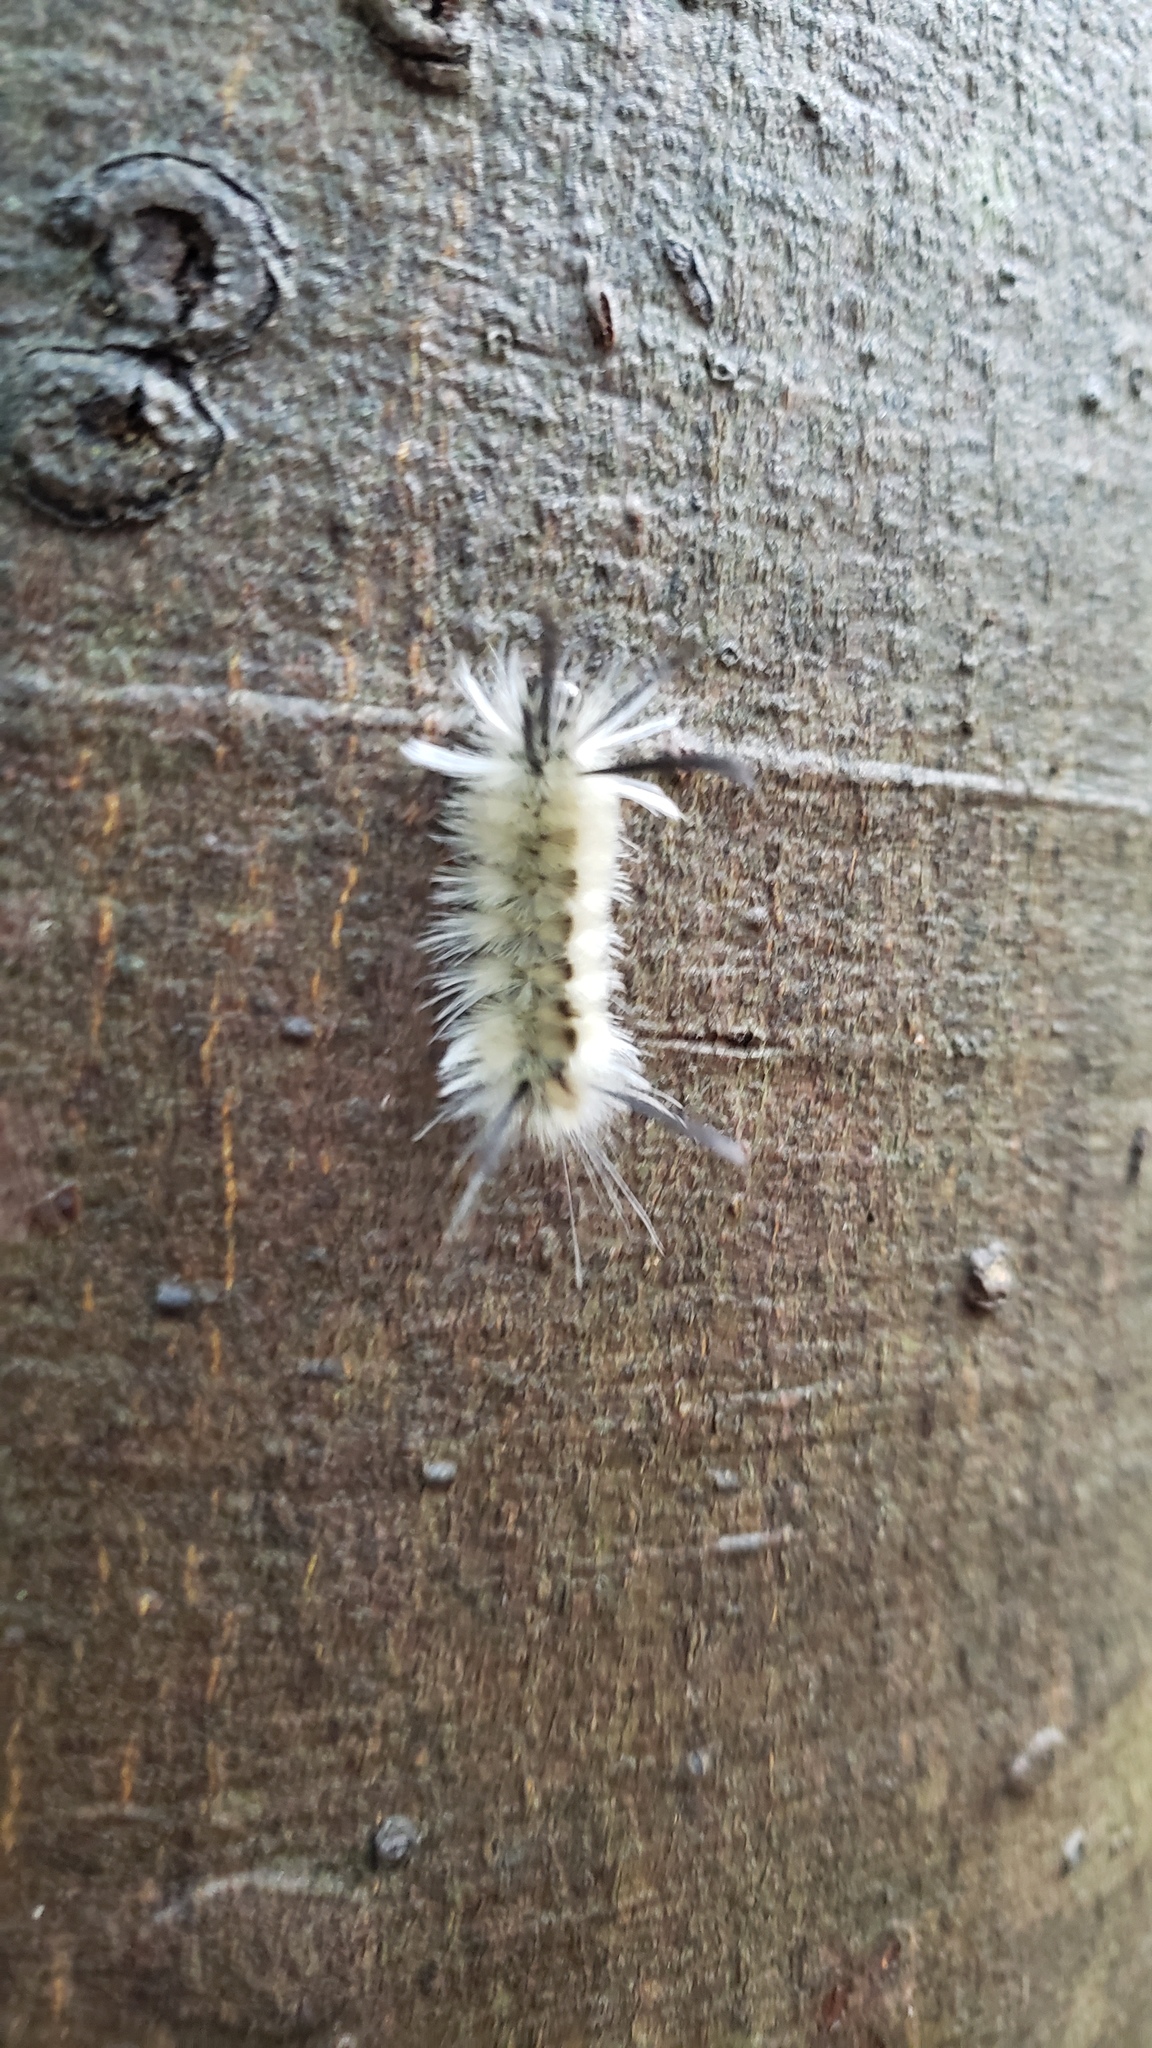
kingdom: Animalia
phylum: Arthropoda
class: Insecta
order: Lepidoptera
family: Erebidae
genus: Halysidota
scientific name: Halysidota tessellaris
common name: Banded tussock moth
